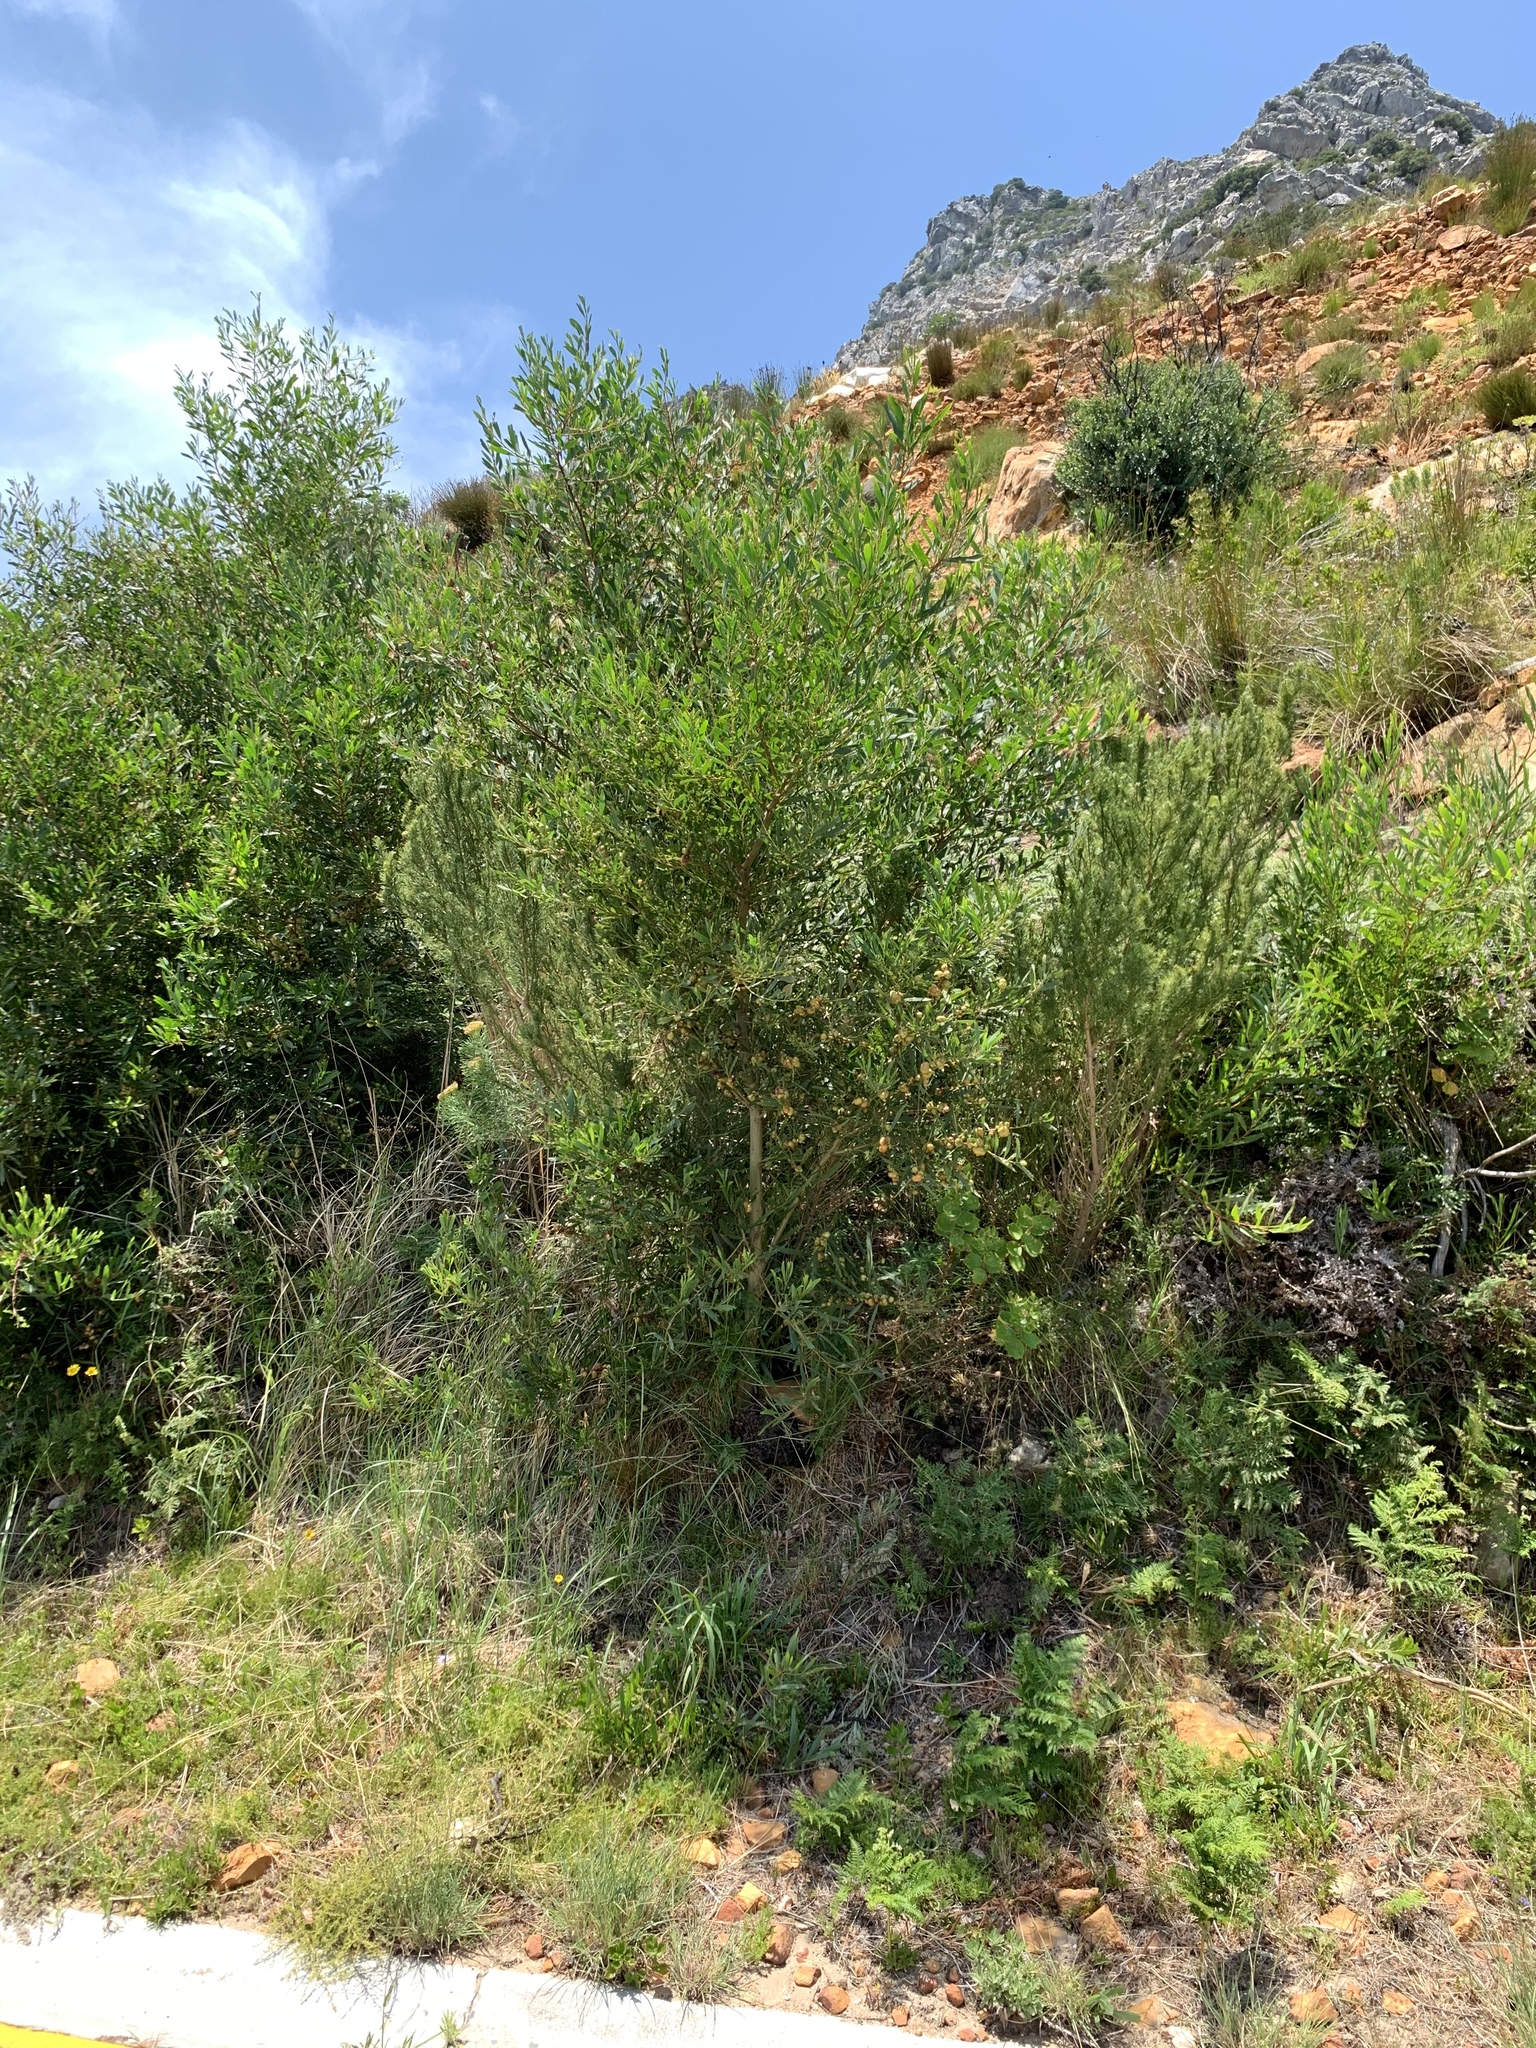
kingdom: Plantae
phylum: Tracheophyta
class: Magnoliopsida
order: Fabales
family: Fabaceae
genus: Acacia
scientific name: Acacia longifolia
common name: Sydney golden wattle
